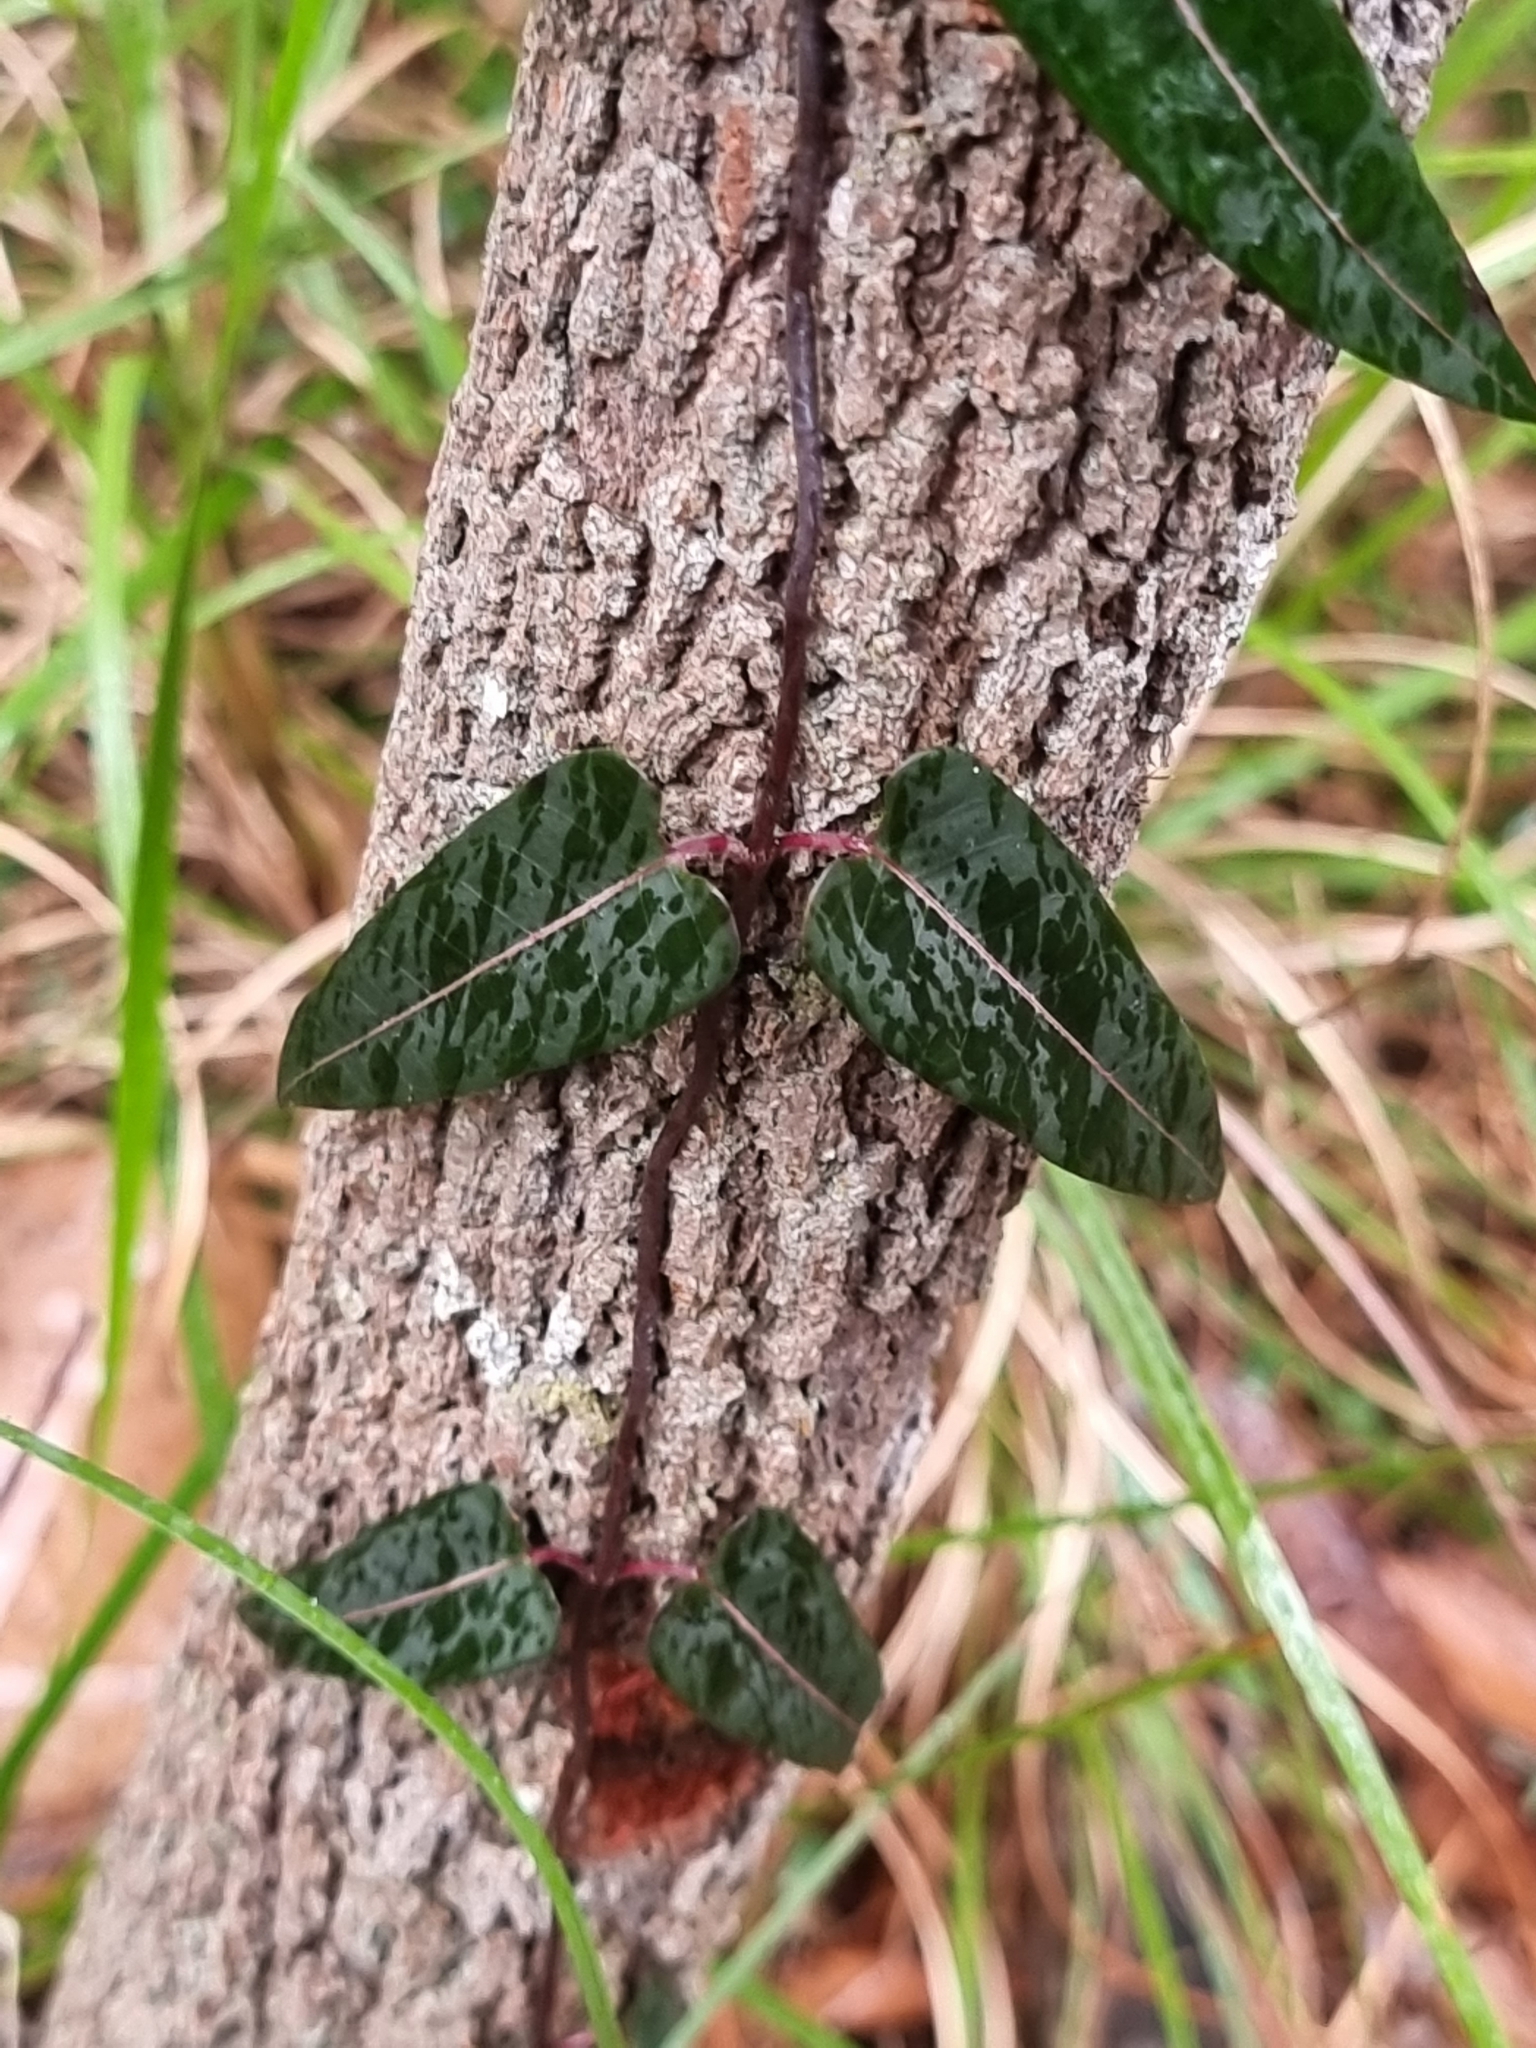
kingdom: Plantae
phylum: Tracheophyta
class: Magnoliopsida
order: Gentianales
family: Apocynaceae
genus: Parsonsia
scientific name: Parsonsia straminea
